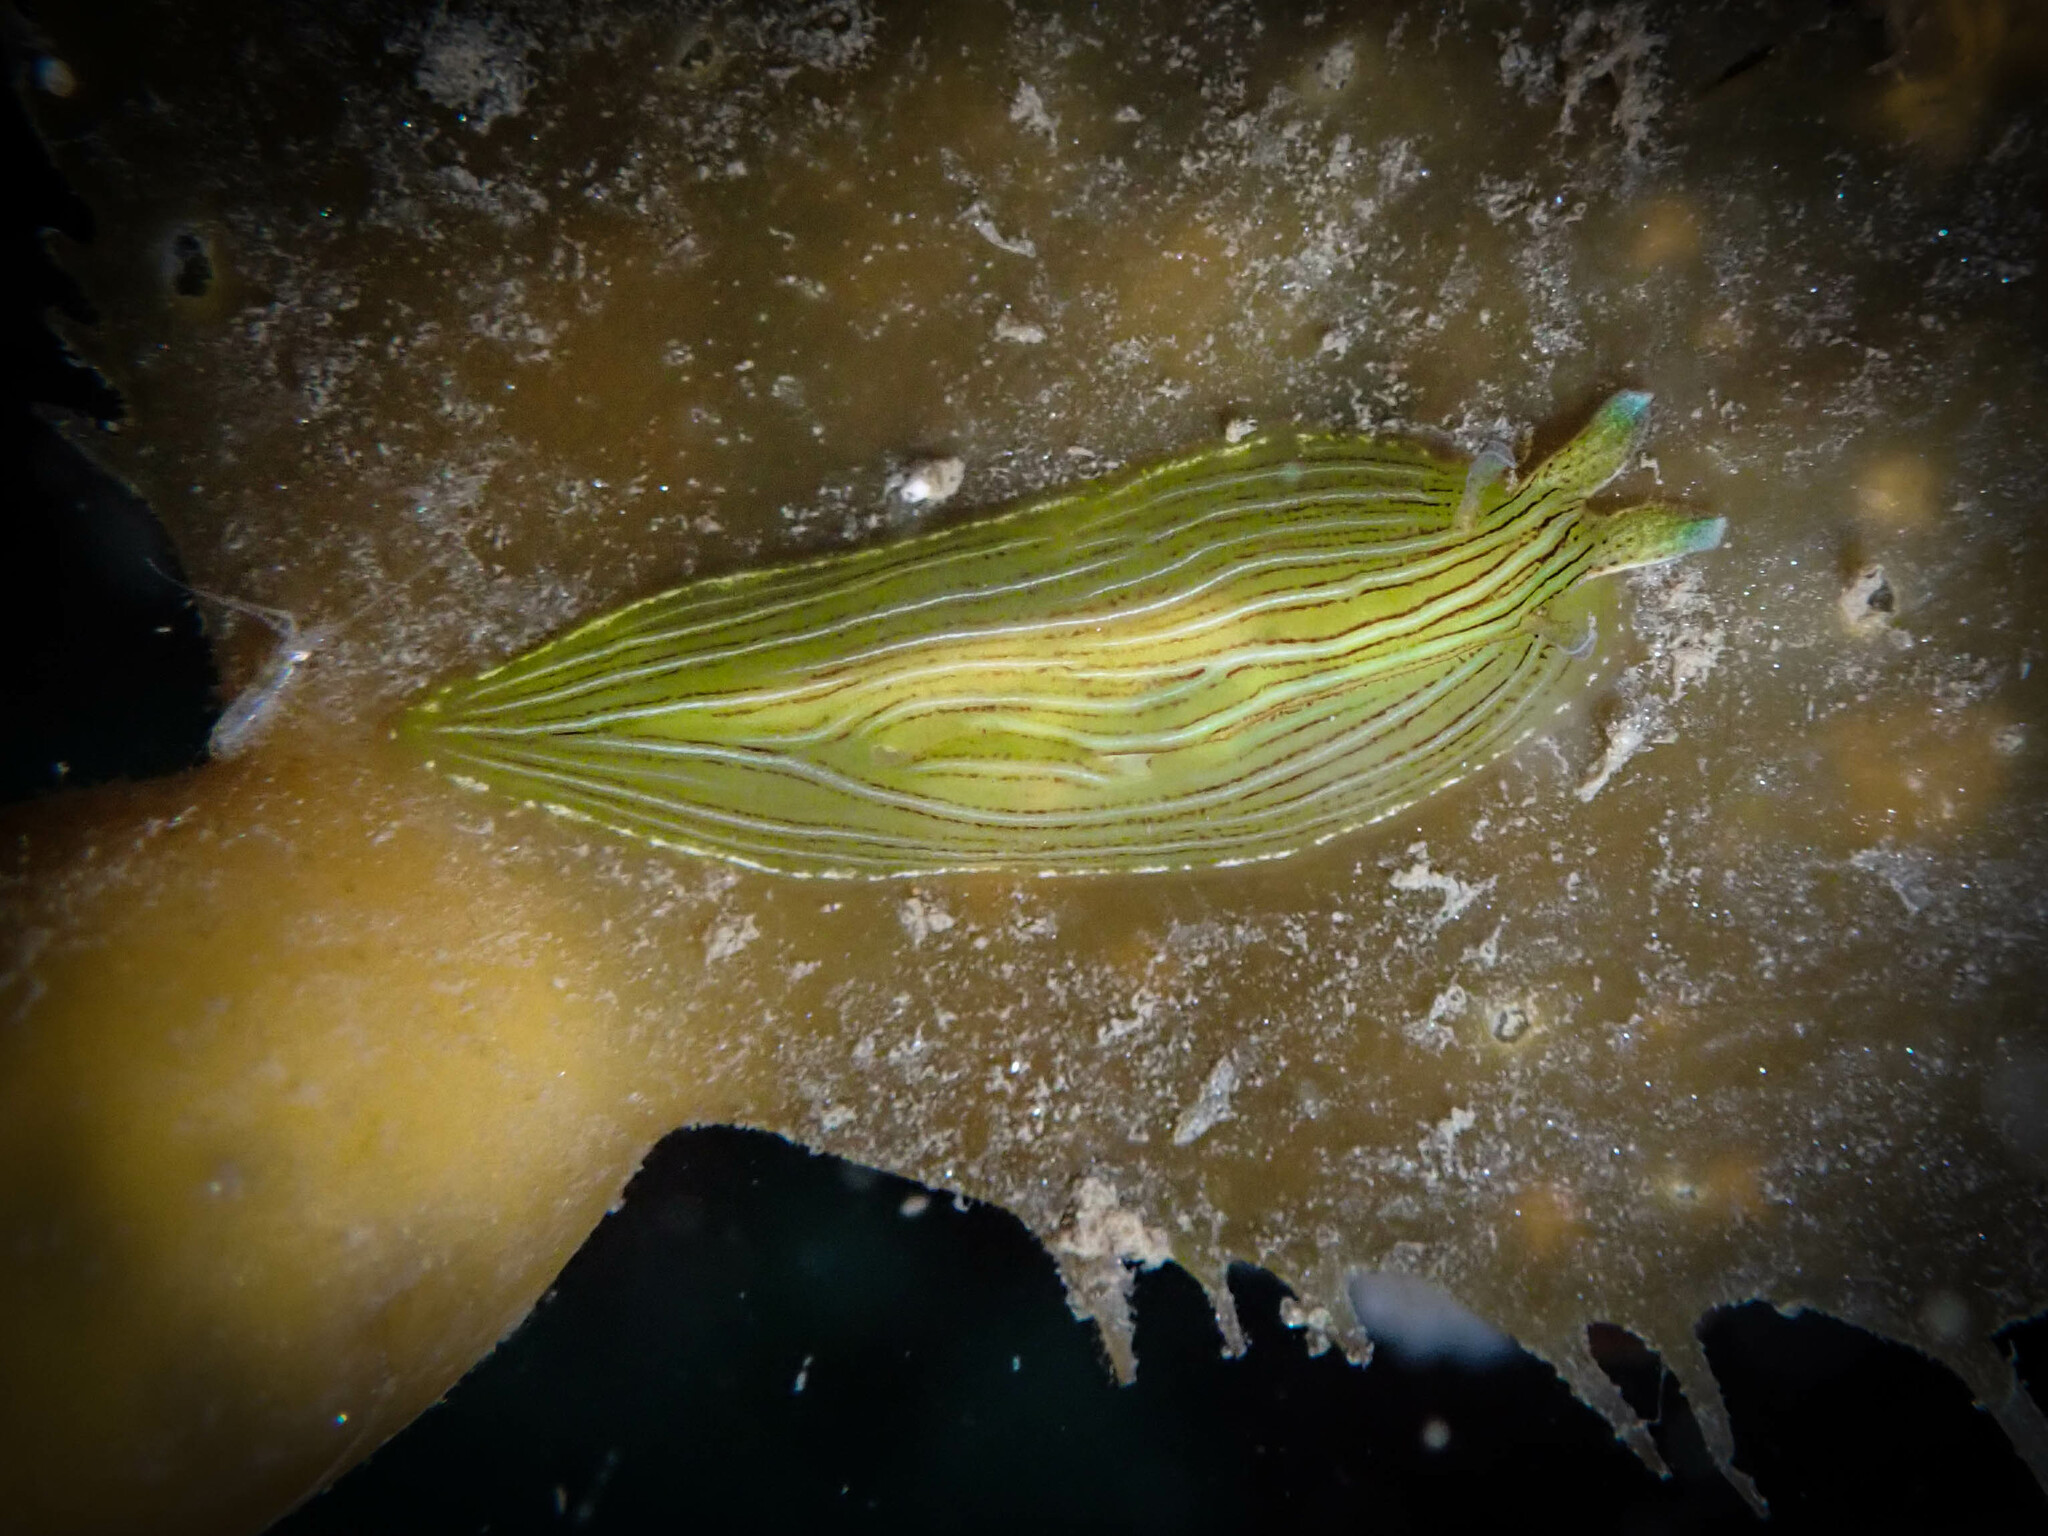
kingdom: Animalia
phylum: Mollusca
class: Gastropoda
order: Aplysiida
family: Aplysiidae
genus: Phyllaplysia
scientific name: Phyllaplysia taylori
